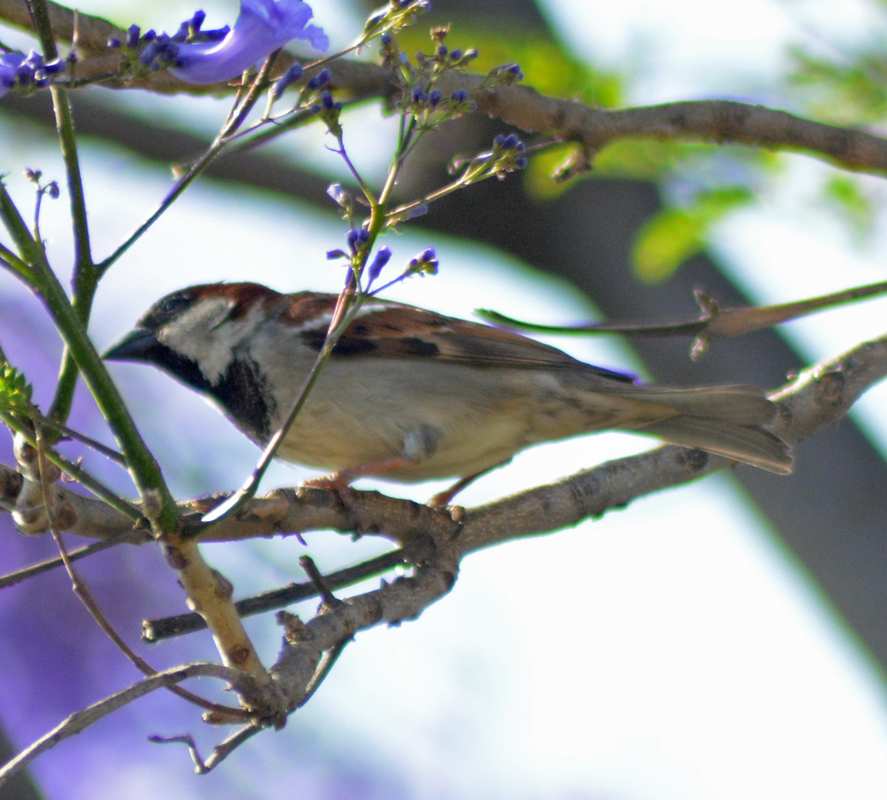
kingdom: Animalia
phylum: Chordata
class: Aves
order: Passeriformes
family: Passeridae
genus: Passer
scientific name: Passer domesticus
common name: House sparrow
